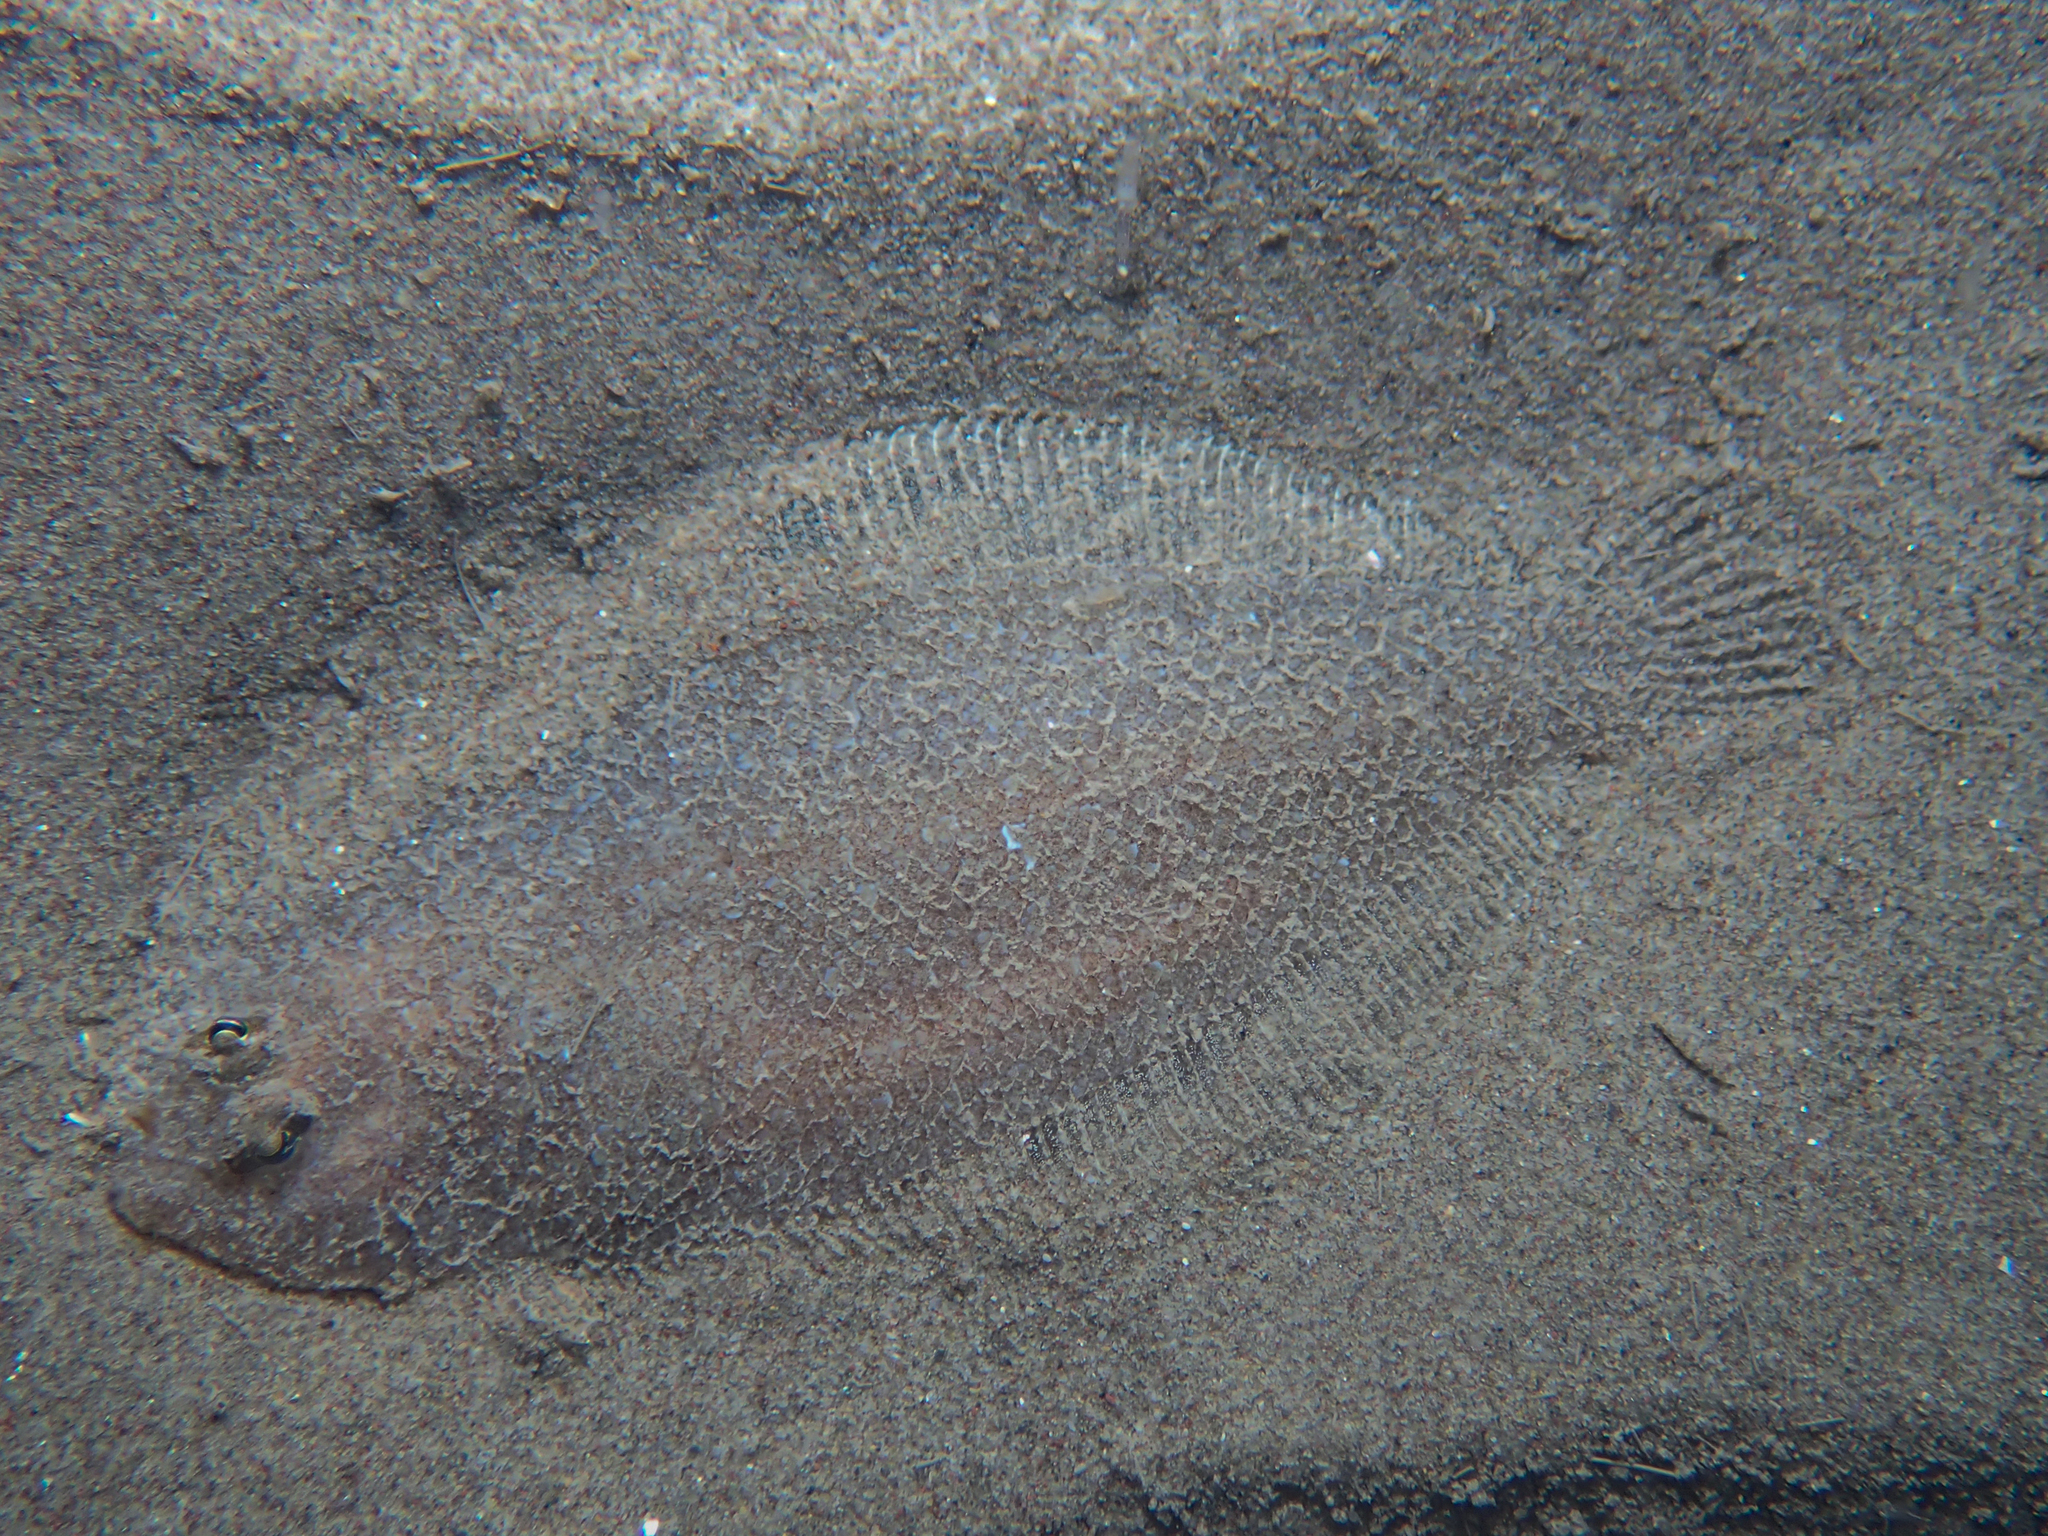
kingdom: Animalia
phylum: Chordata
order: Pleuronectiformes
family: Bothidae
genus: Arnoglossus
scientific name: Arnoglossus laterna
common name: Scaldfish
